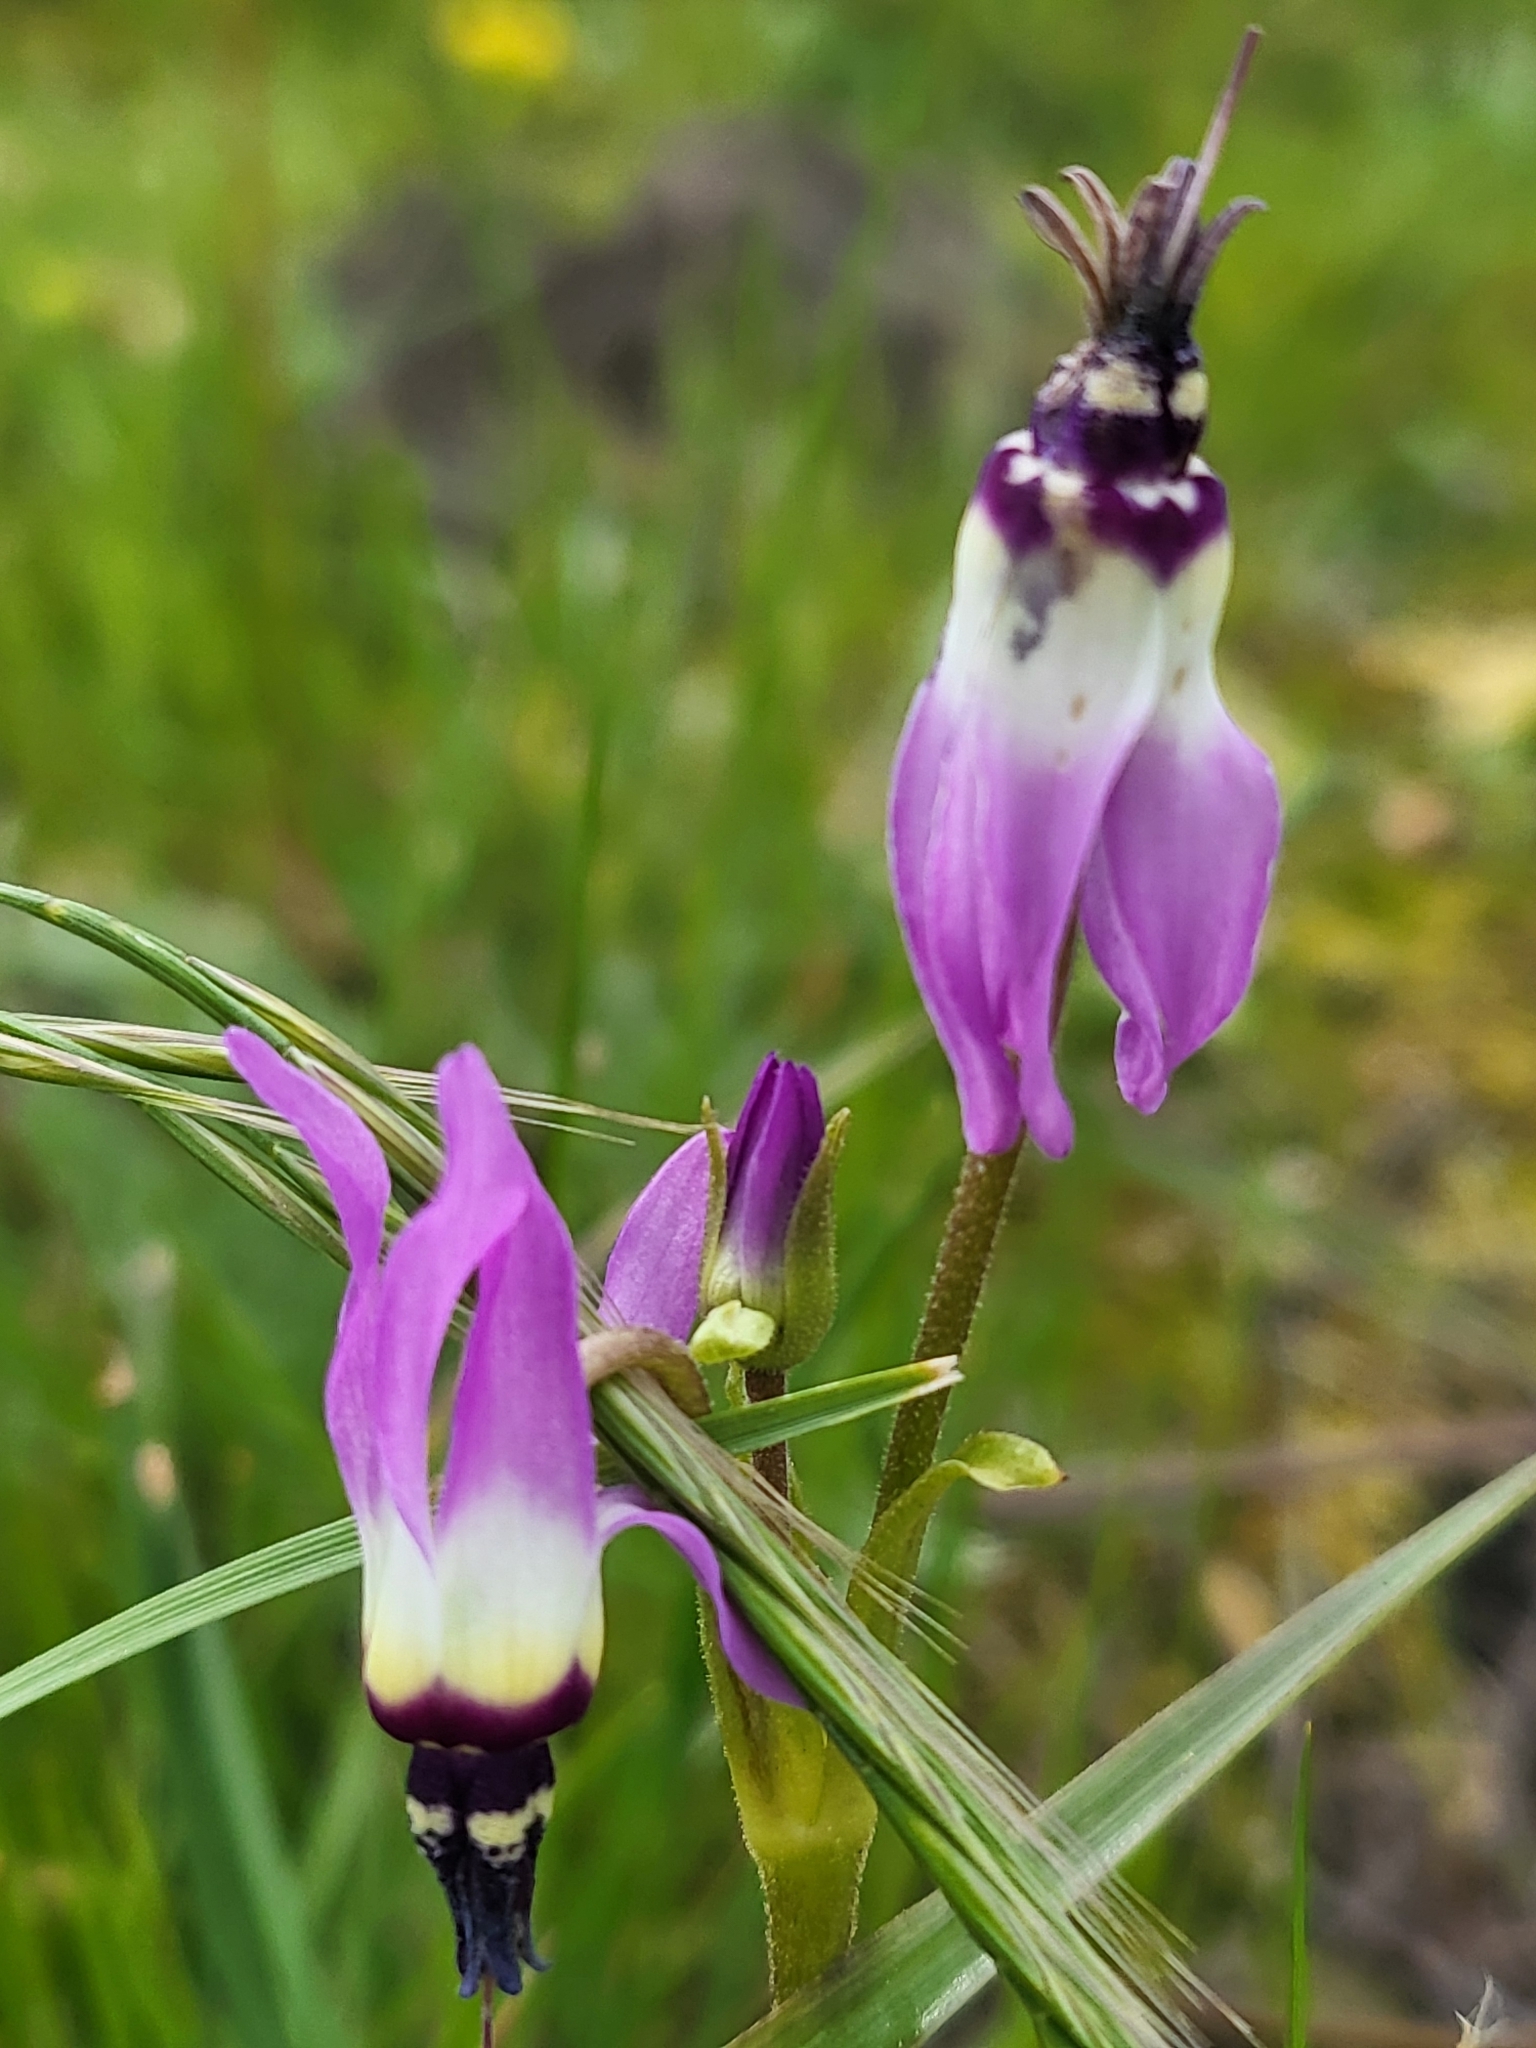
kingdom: Plantae
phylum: Tracheophyta
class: Magnoliopsida
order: Ericales
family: Primulaceae
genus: Dodecatheon
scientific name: Dodecatheon clevelandii
